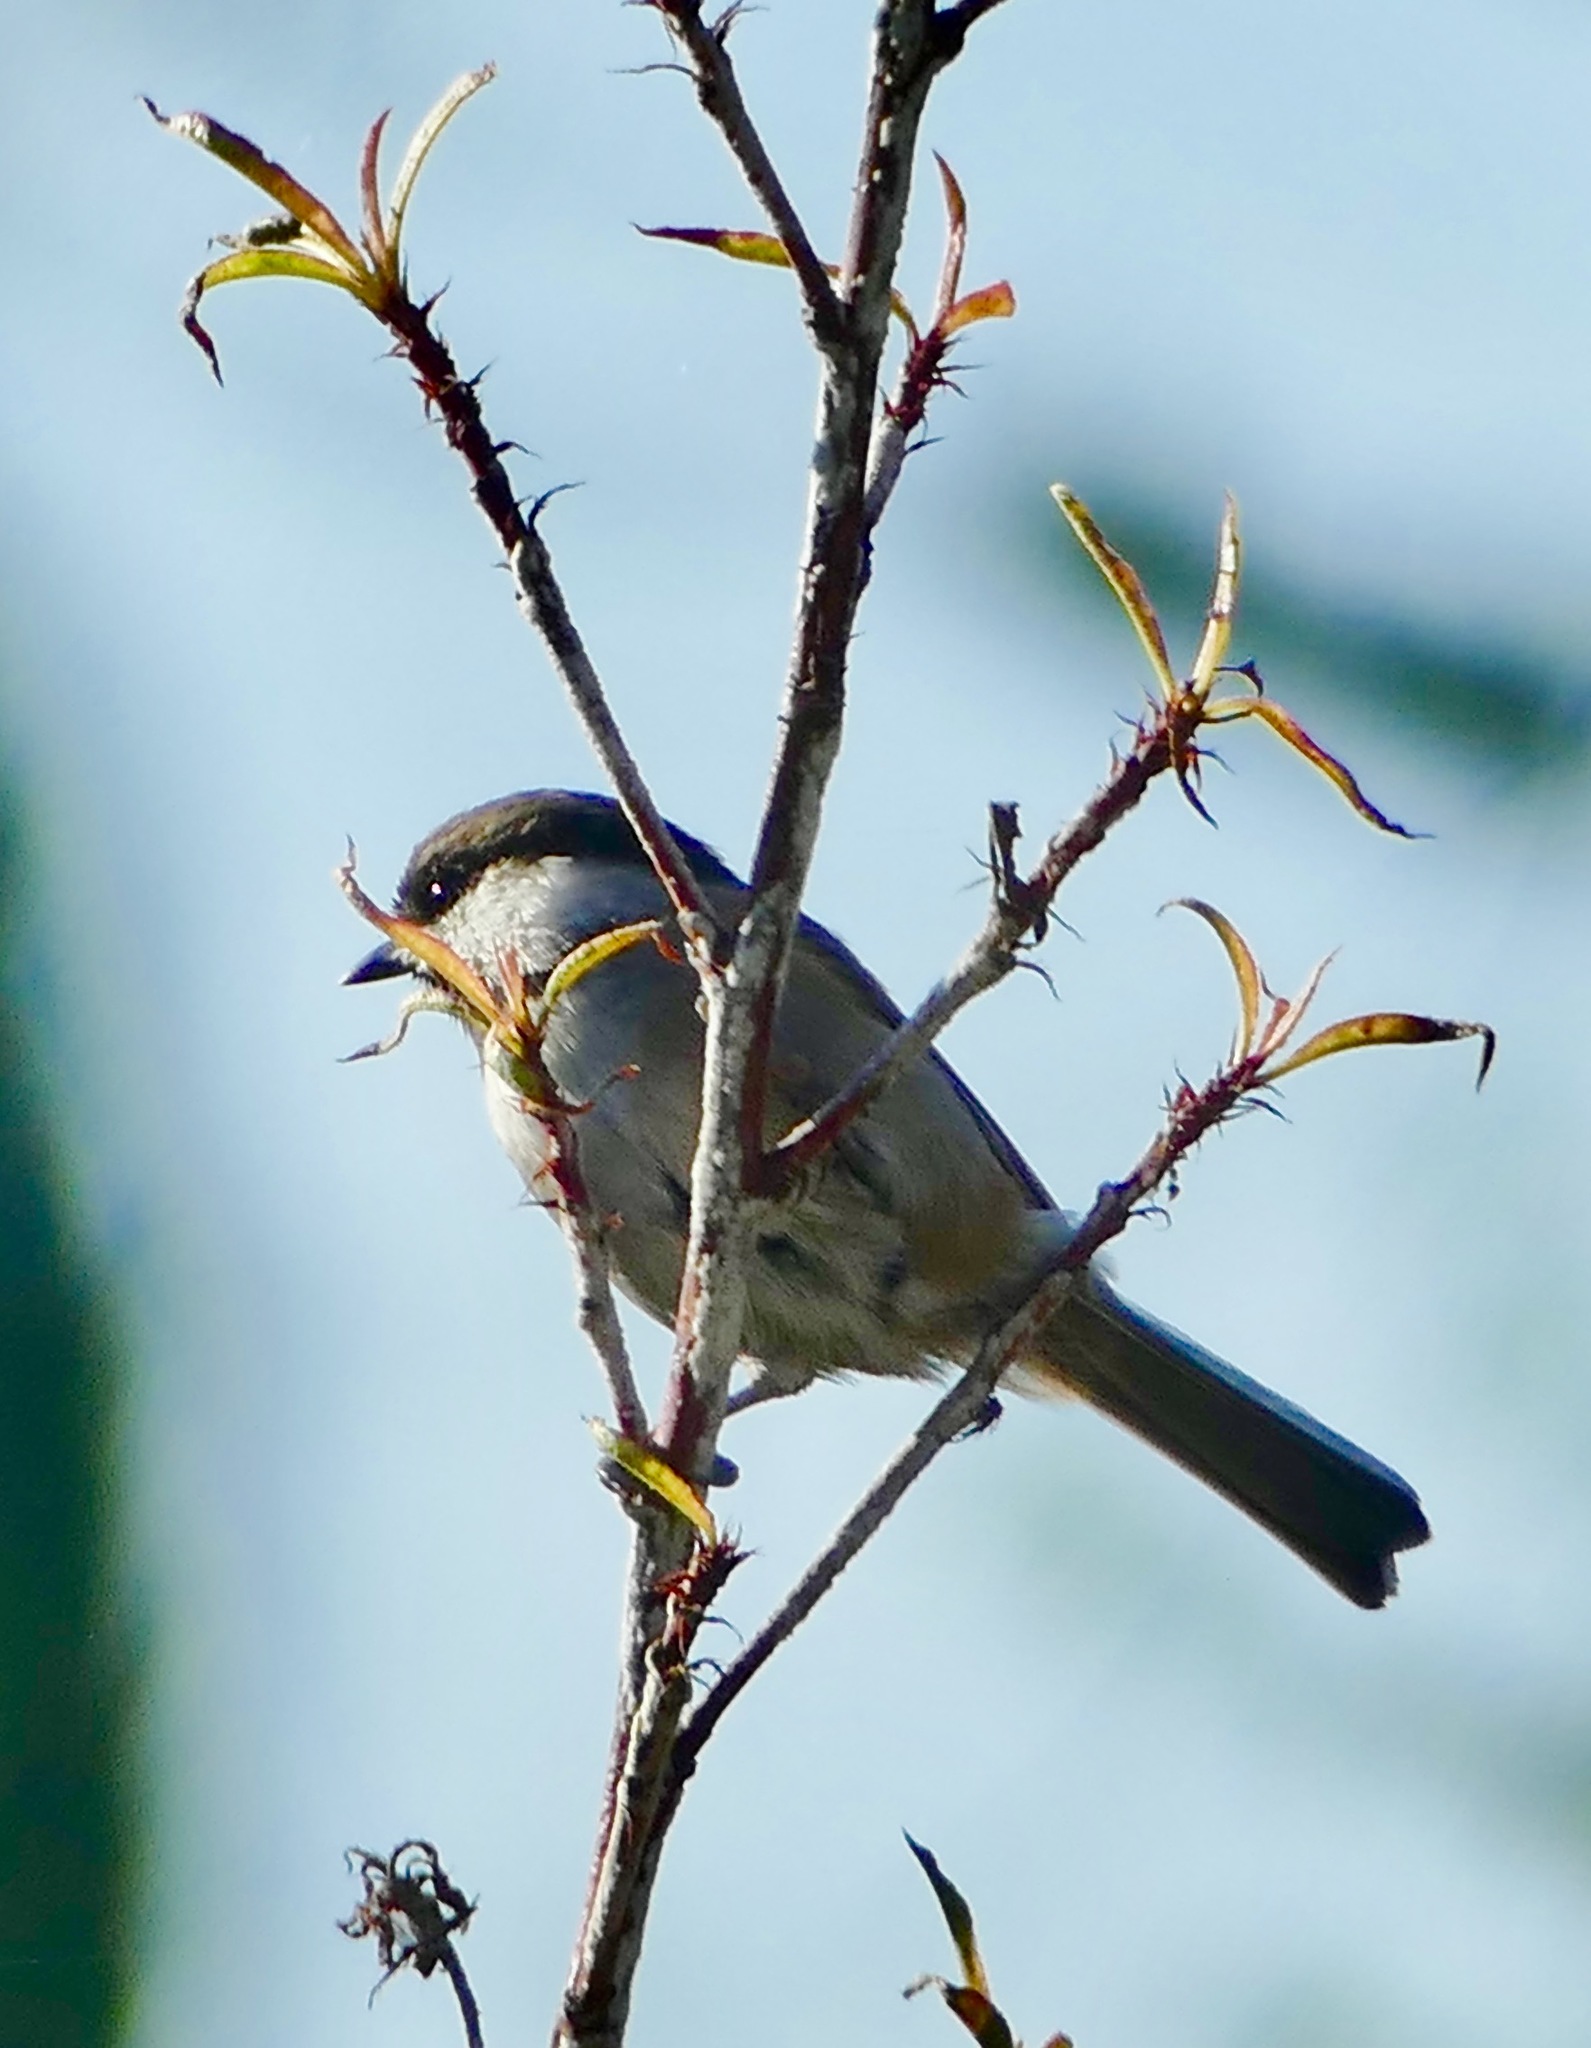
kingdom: Animalia
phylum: Chordata
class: Aves
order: Passeriformes
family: Paridae
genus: Poecile
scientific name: Poecile rufescens
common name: Chestnut-backed chickadee
